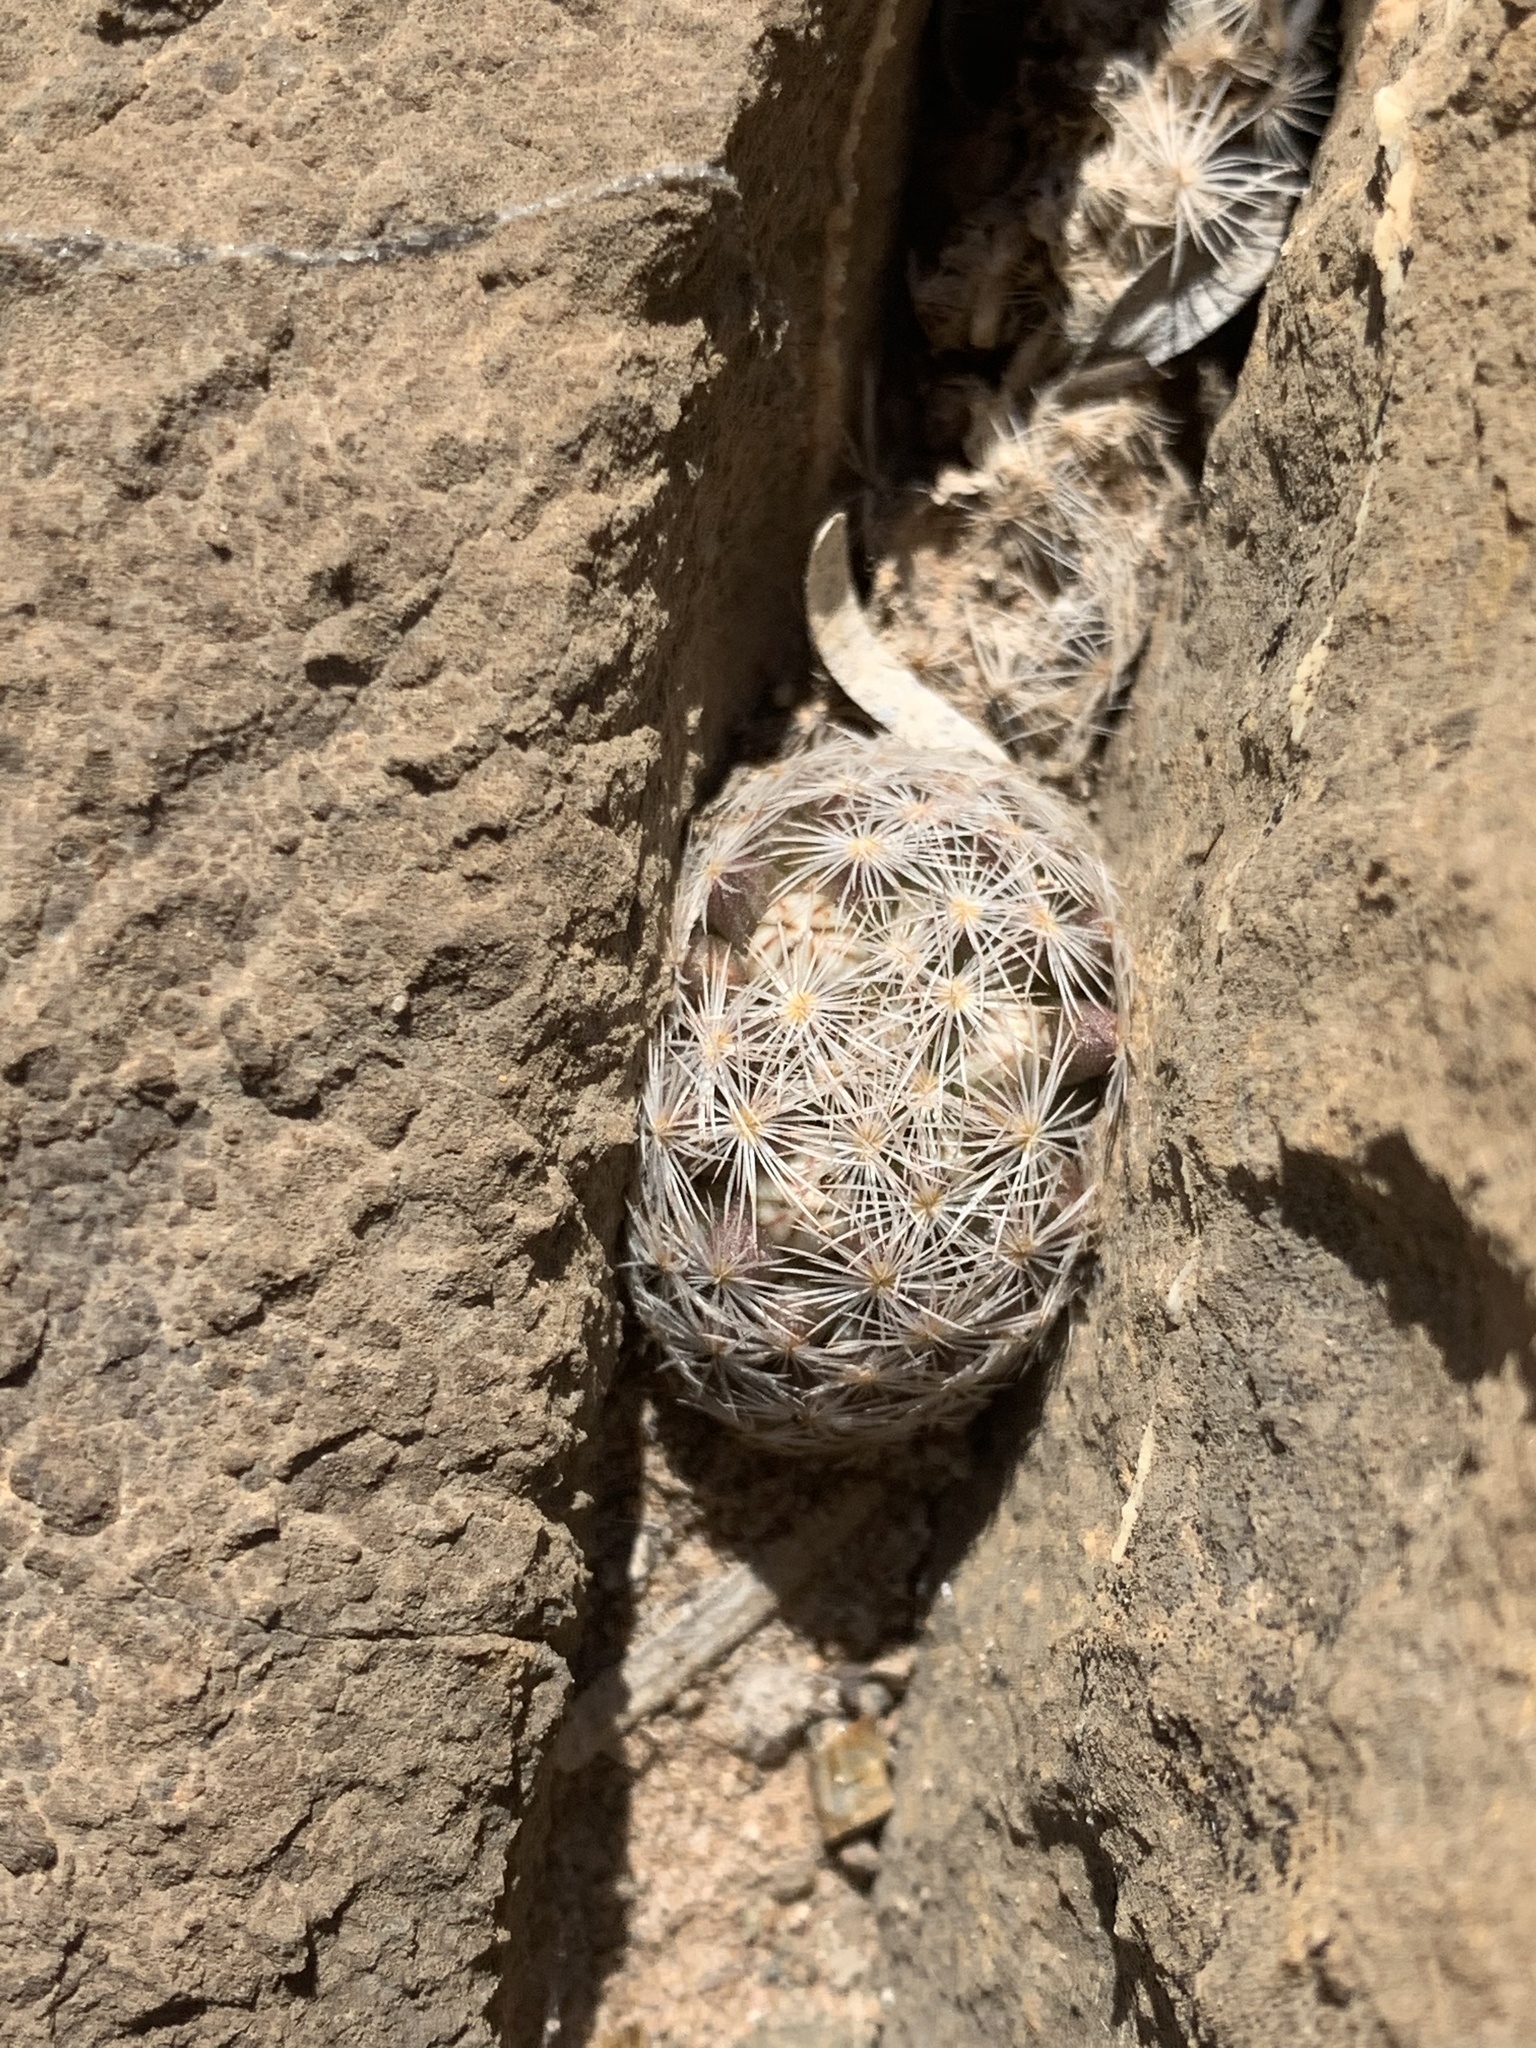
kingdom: Plantae
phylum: Tracheophyta
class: Magnoliopsida
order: Caryophyllales
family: Cactaceae
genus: Mammillaria
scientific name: Mammillaria lasiacantha
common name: Lace-spine nipple cactus
